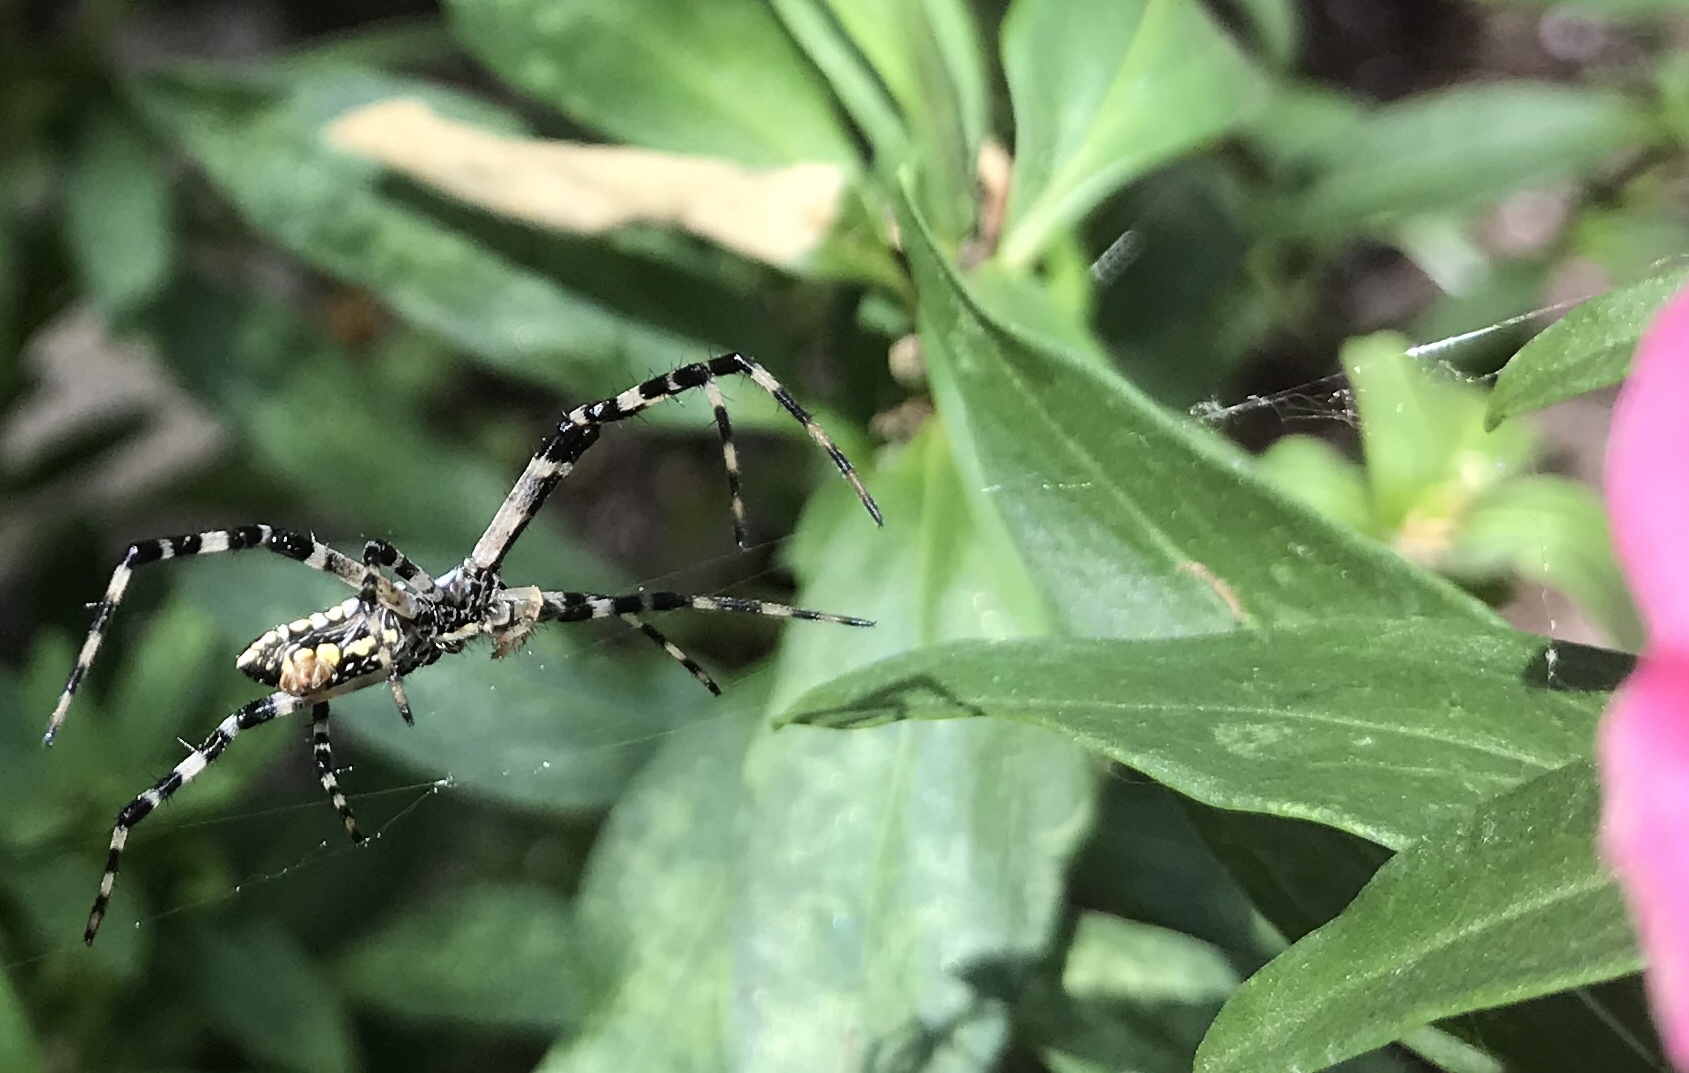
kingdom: Animalia
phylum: Arthropoda
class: Arachnida
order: Araneae
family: Araneidae
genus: Argiope
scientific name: Argiope aurantia
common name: Orb weavers
